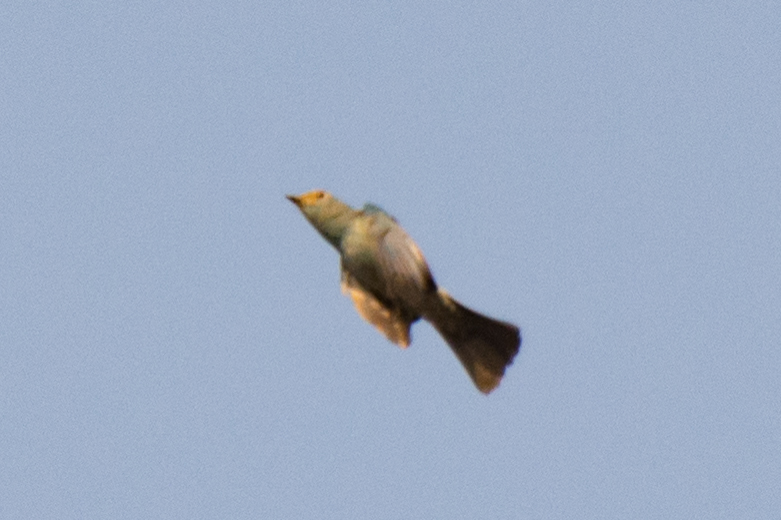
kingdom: Animalia
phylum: Chordata
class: Aves
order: Passeriformes
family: Muscicapidae
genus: Eumyias
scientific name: Eumyias thalassinus
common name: Verditer flycatcher
